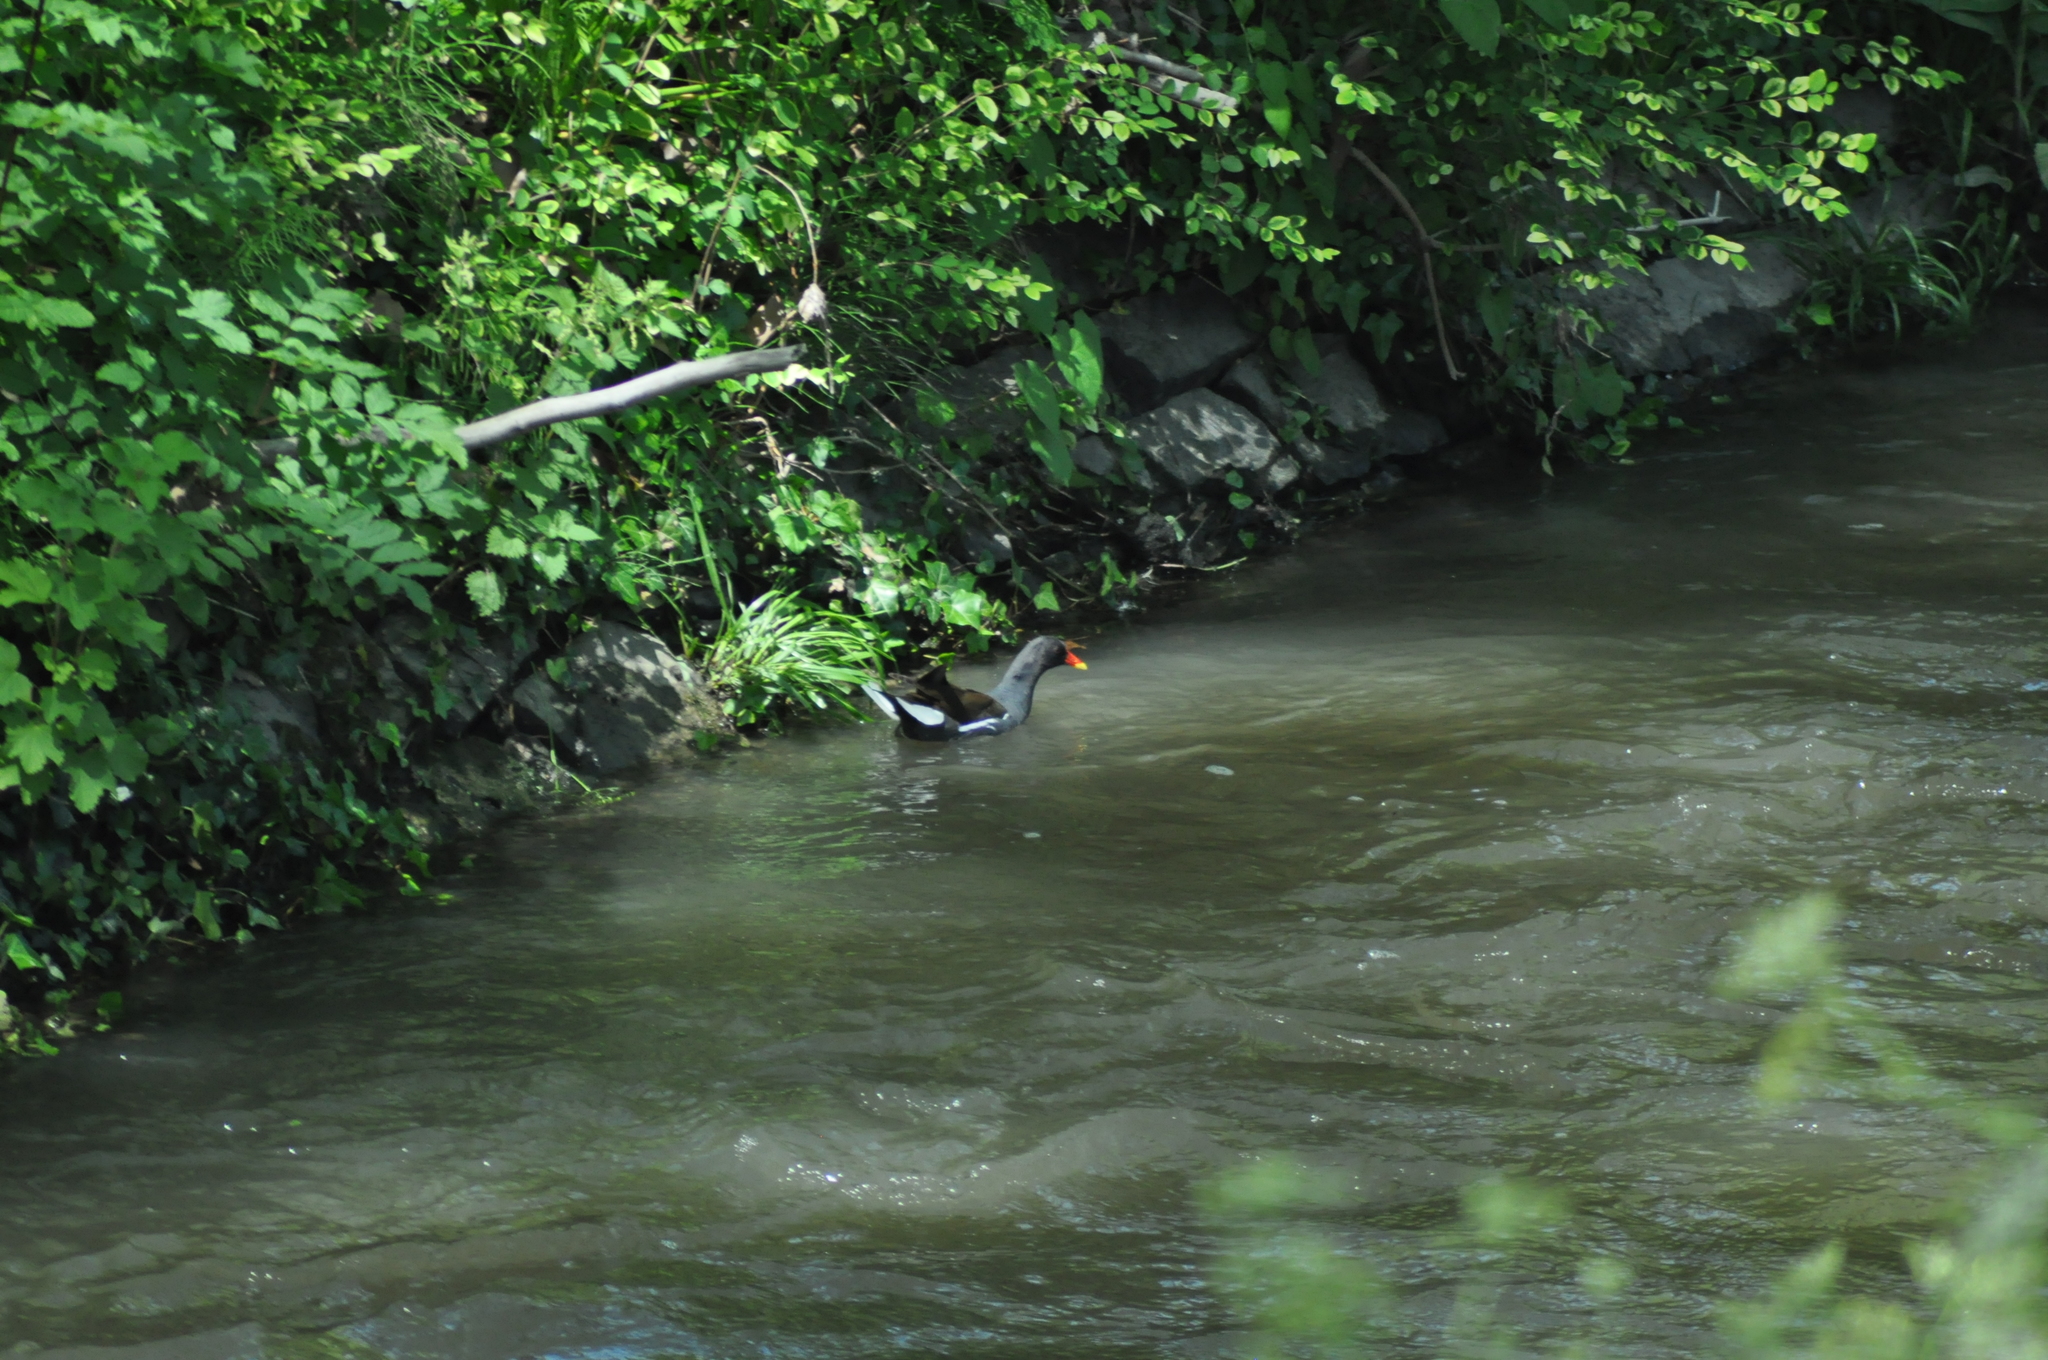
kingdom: Animalia
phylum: Chordata
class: Aves
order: Gruiformes
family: Rallidae
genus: Gallinula
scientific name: Gallinula chloropus
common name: Common moorhen
